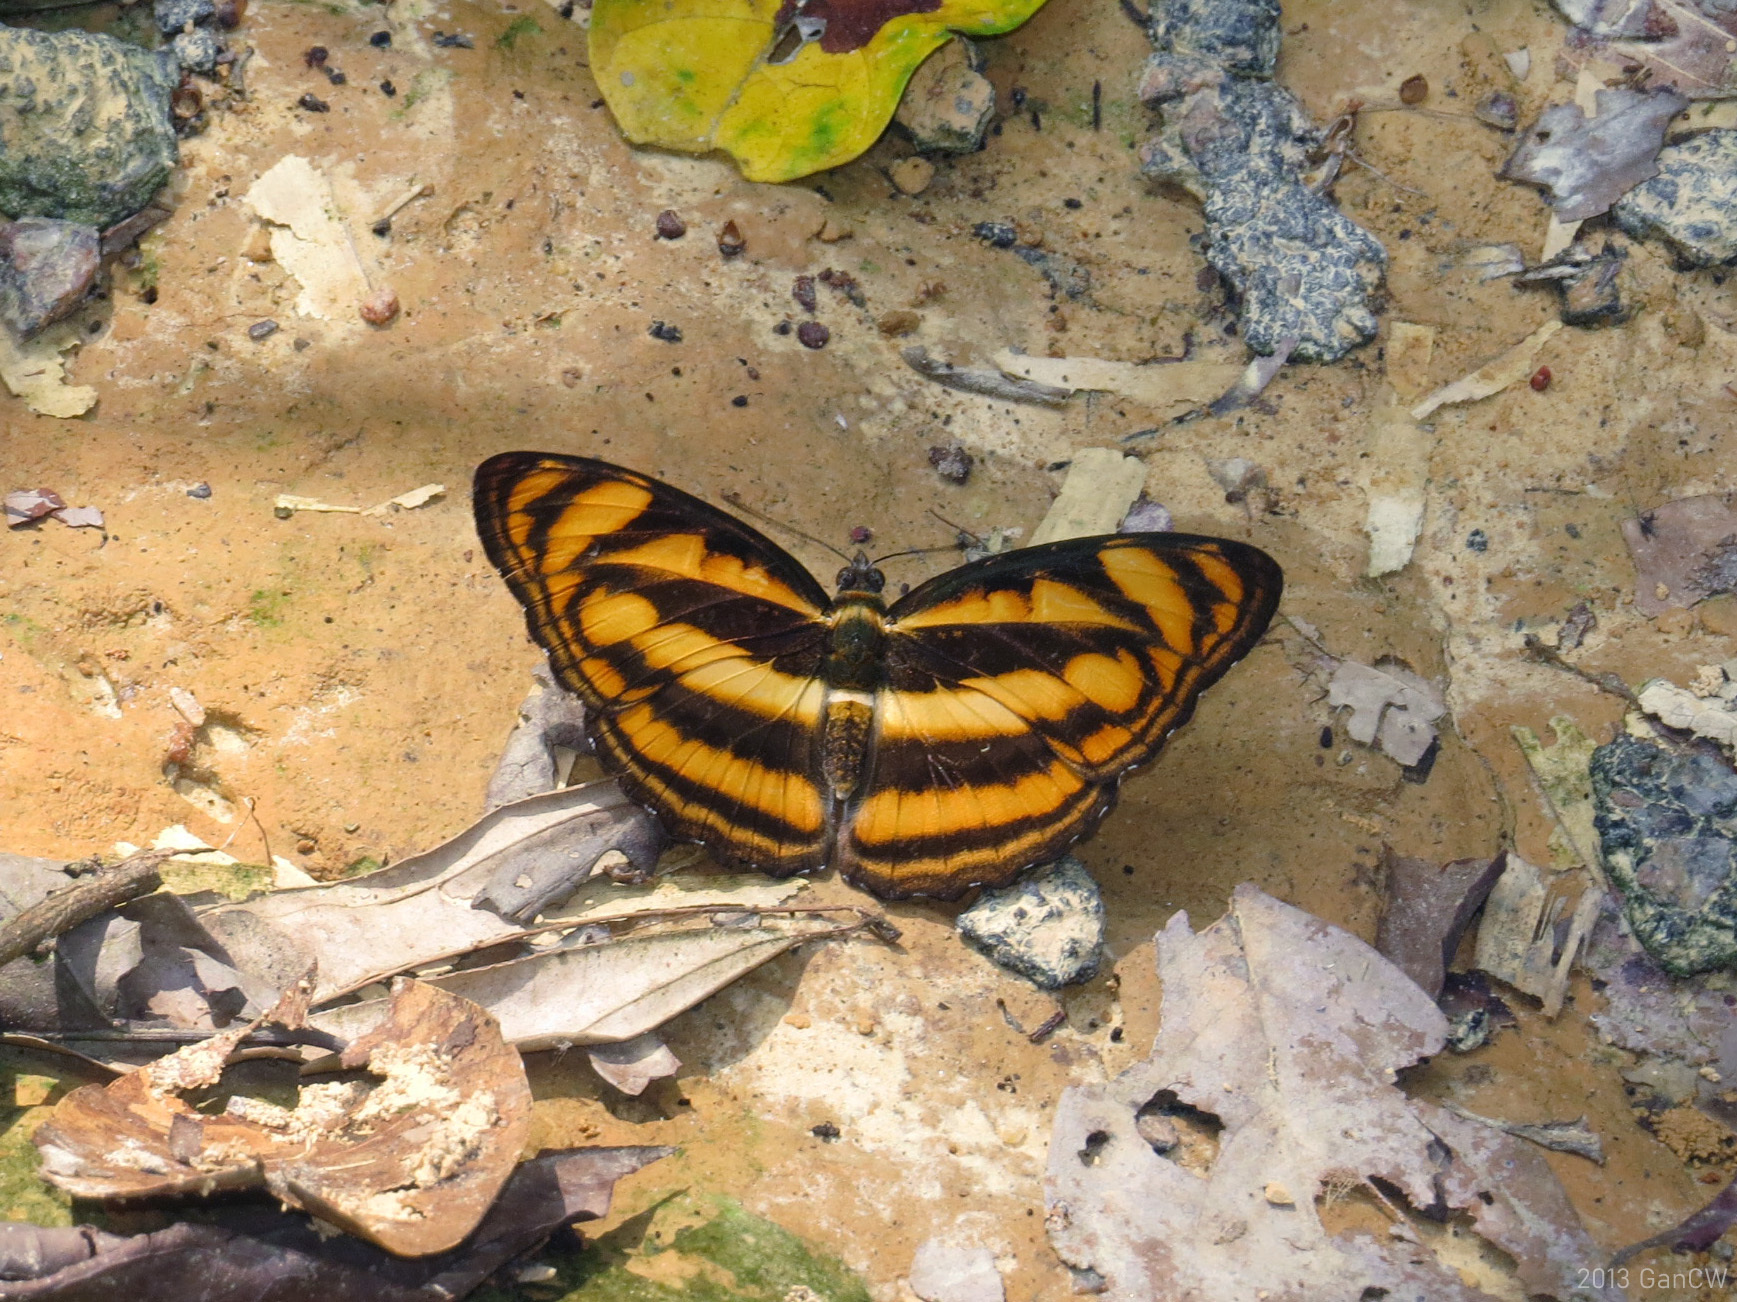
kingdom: Animalia
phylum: Arthropoda
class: Insecta
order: Lepidoptera
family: Nymphalidae
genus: Parathyma
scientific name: Parathyma reta
